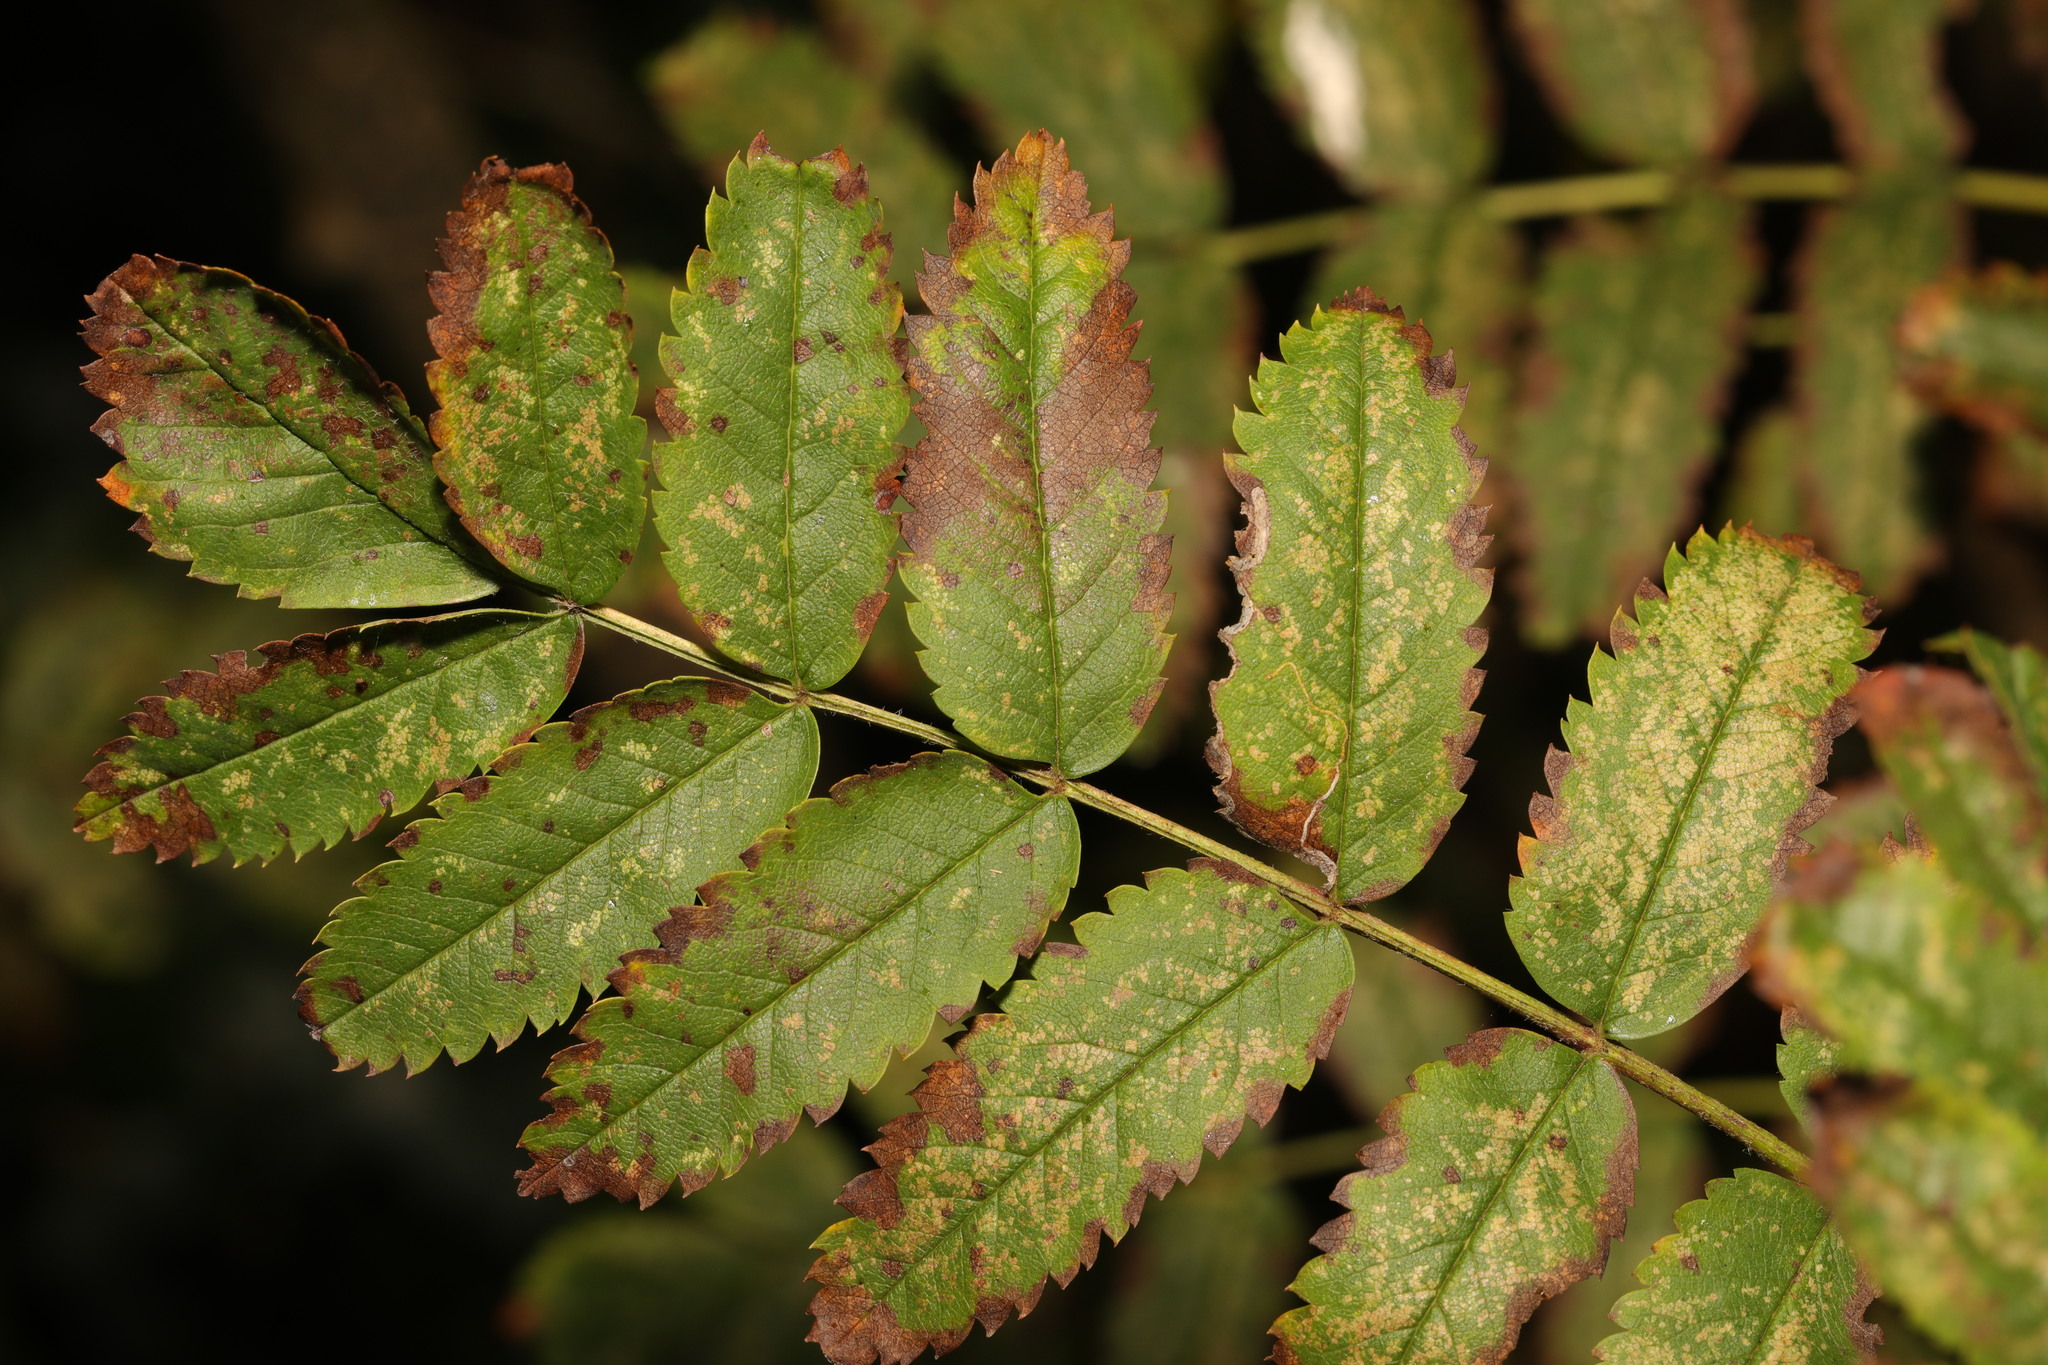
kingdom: Plantae
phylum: Tracheophyta
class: Magnoliopsida
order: Rosales
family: Rosaceae
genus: Sorbus
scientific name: Sorbus aucuparia
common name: Rowan
